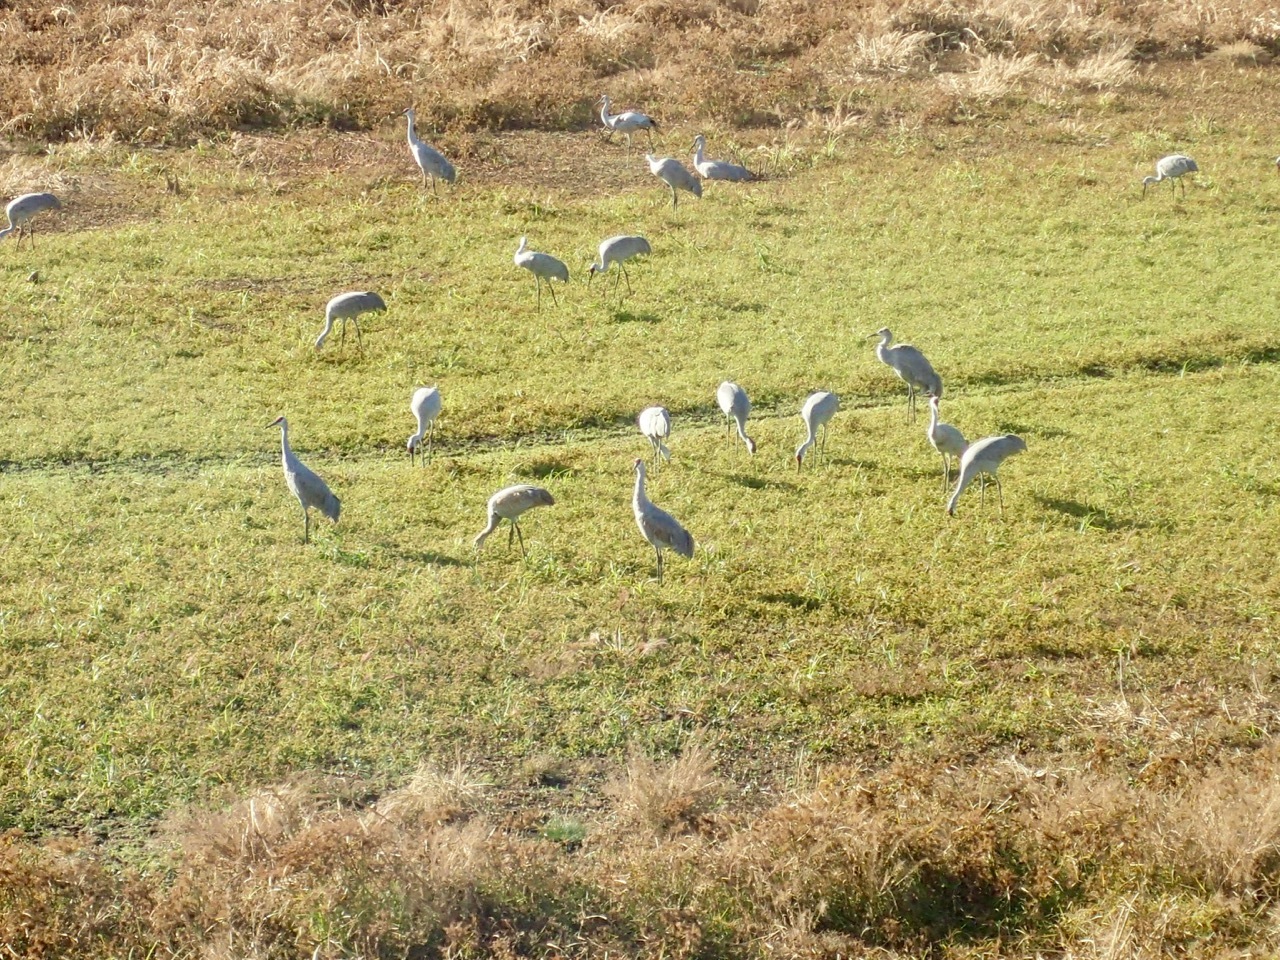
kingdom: Animalia
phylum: Chordata
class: Aves
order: Gruiformes
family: Gruidae
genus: Grus
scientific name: Grus canadensis
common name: Sandhill crane
